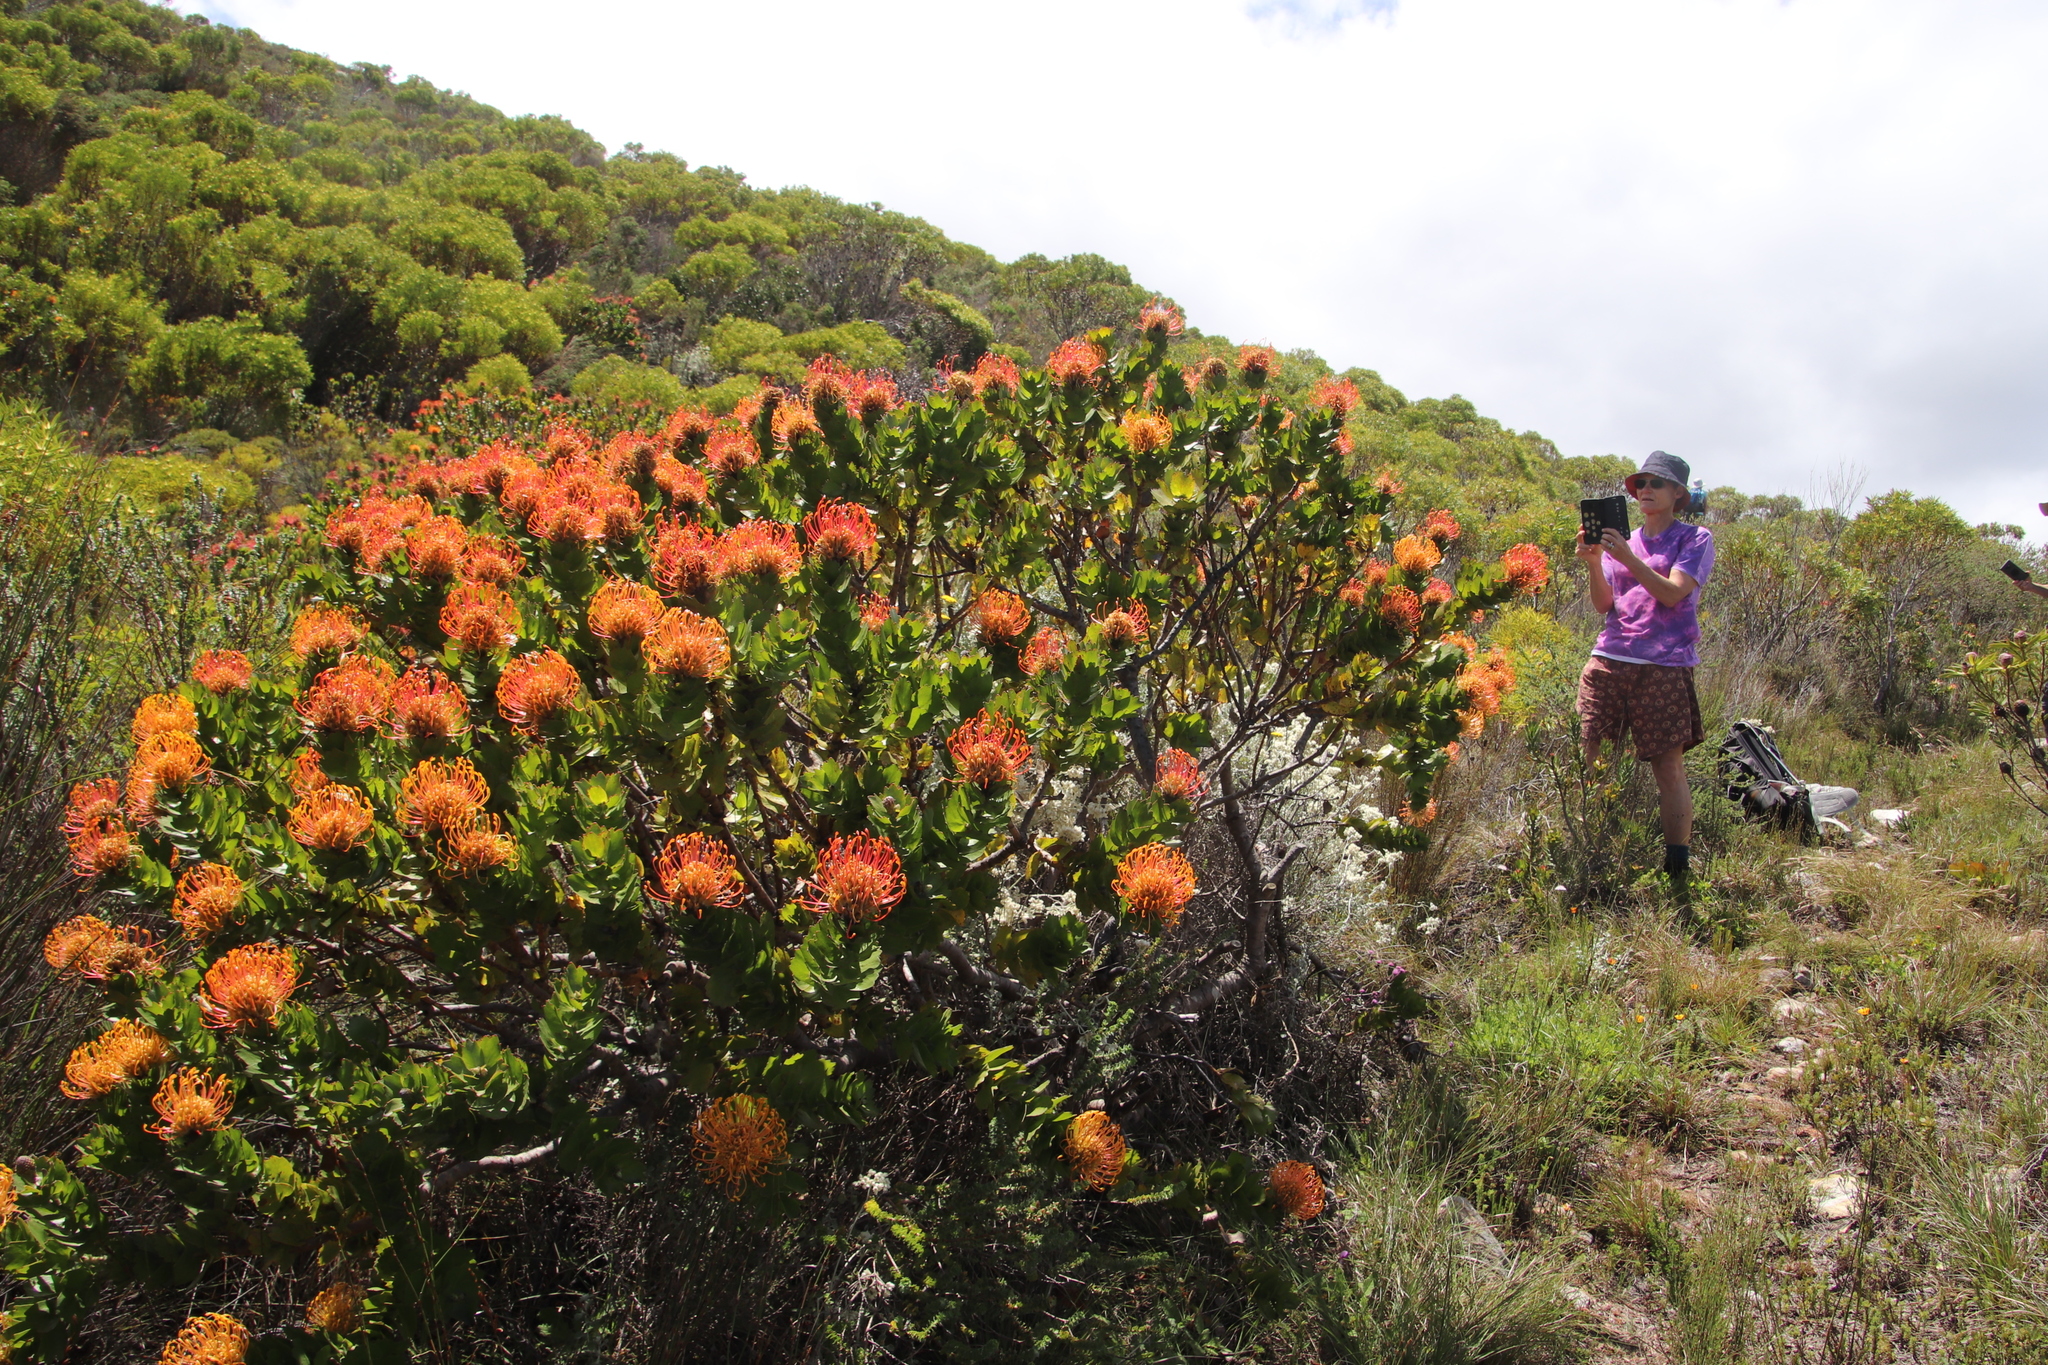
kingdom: Plantae
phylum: Tracheophyta
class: Magnoliopsida
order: Proteales
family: Proteaceae
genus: Leucospermum
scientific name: Leucospermum patersonii
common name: False tree pincushion
